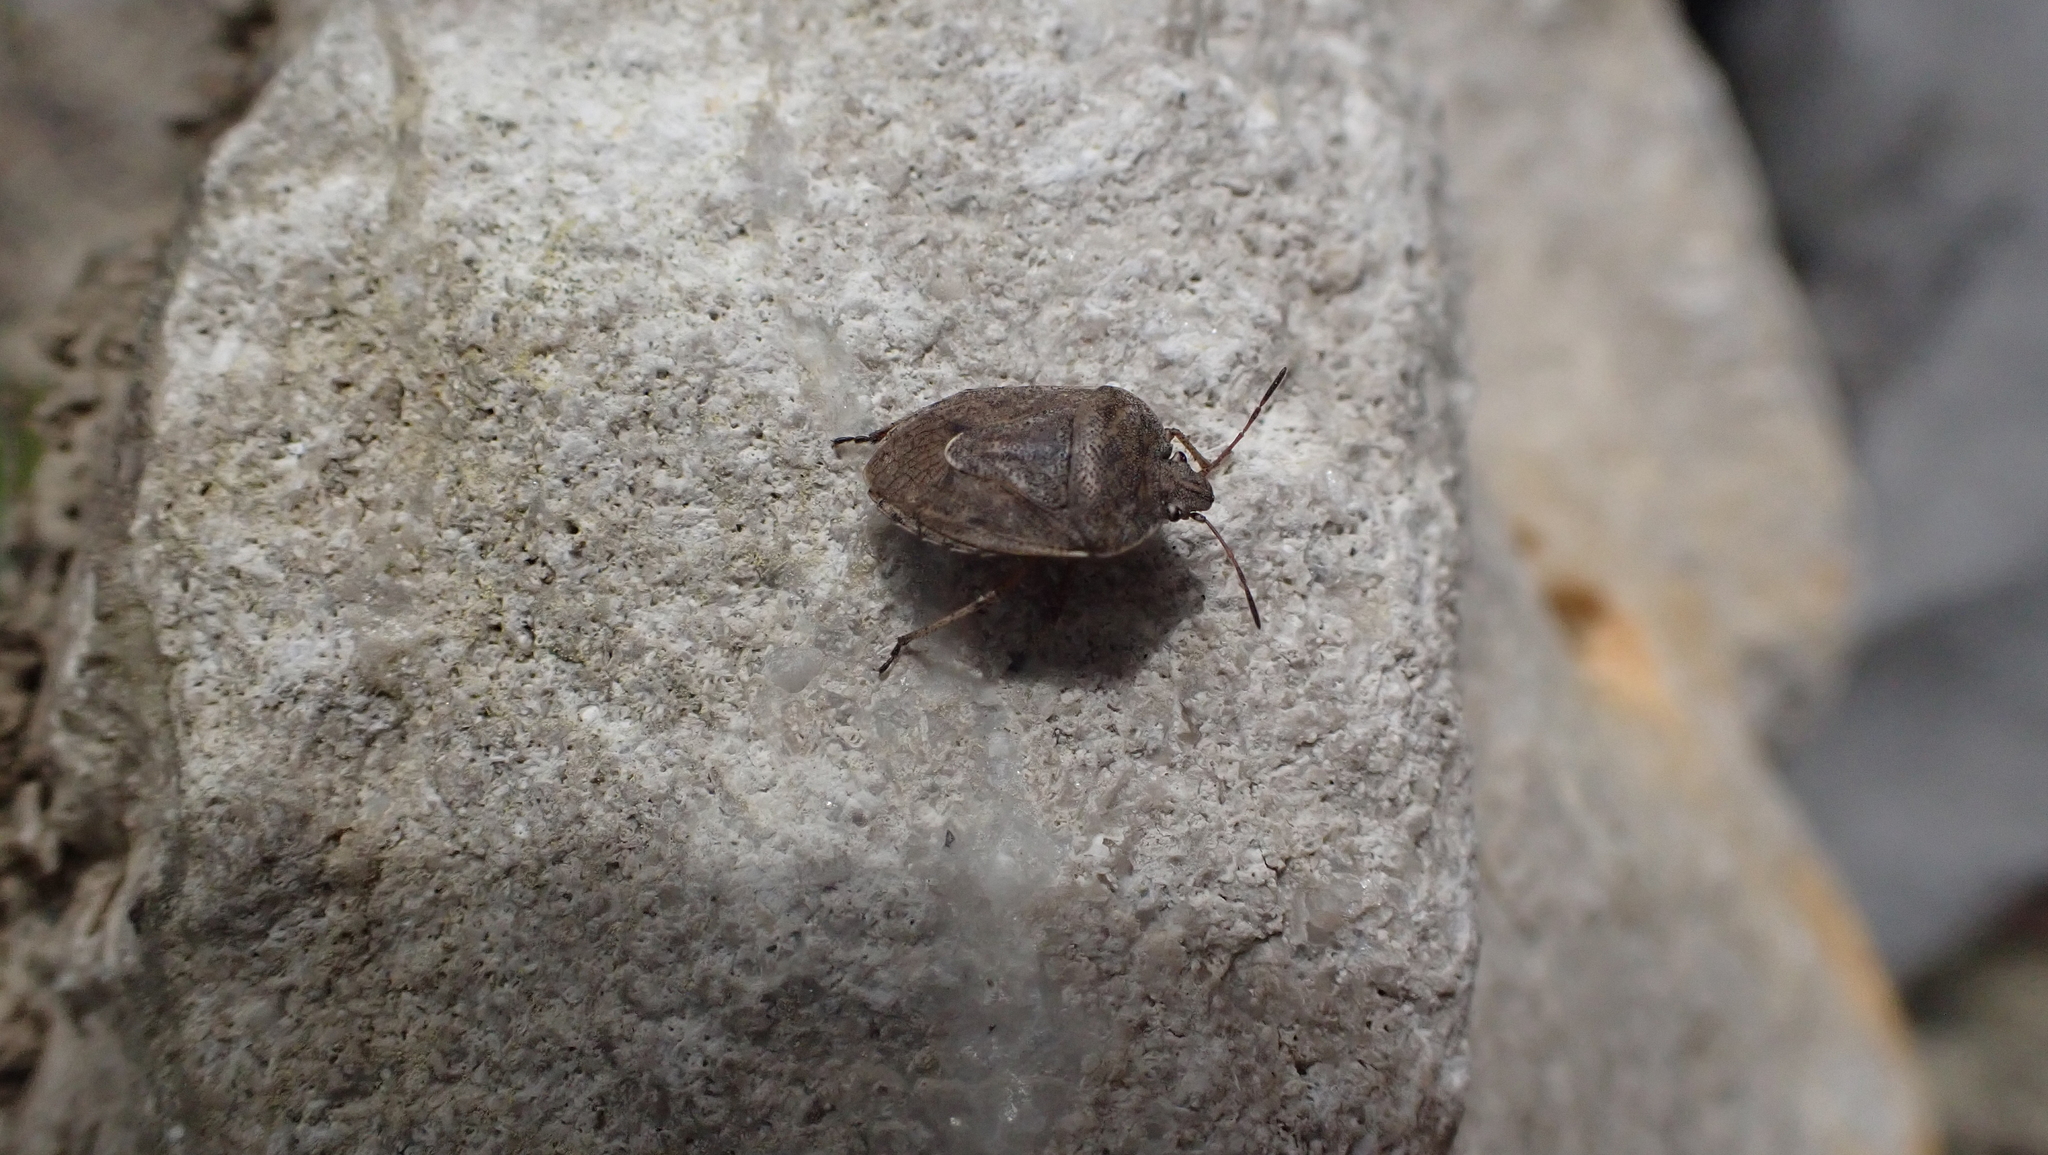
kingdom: Animalia
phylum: Arthropoda
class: Insecta
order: Hemiptera
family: Pentatomidae
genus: Hymenarcys
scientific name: Hymenarcys nervosa
